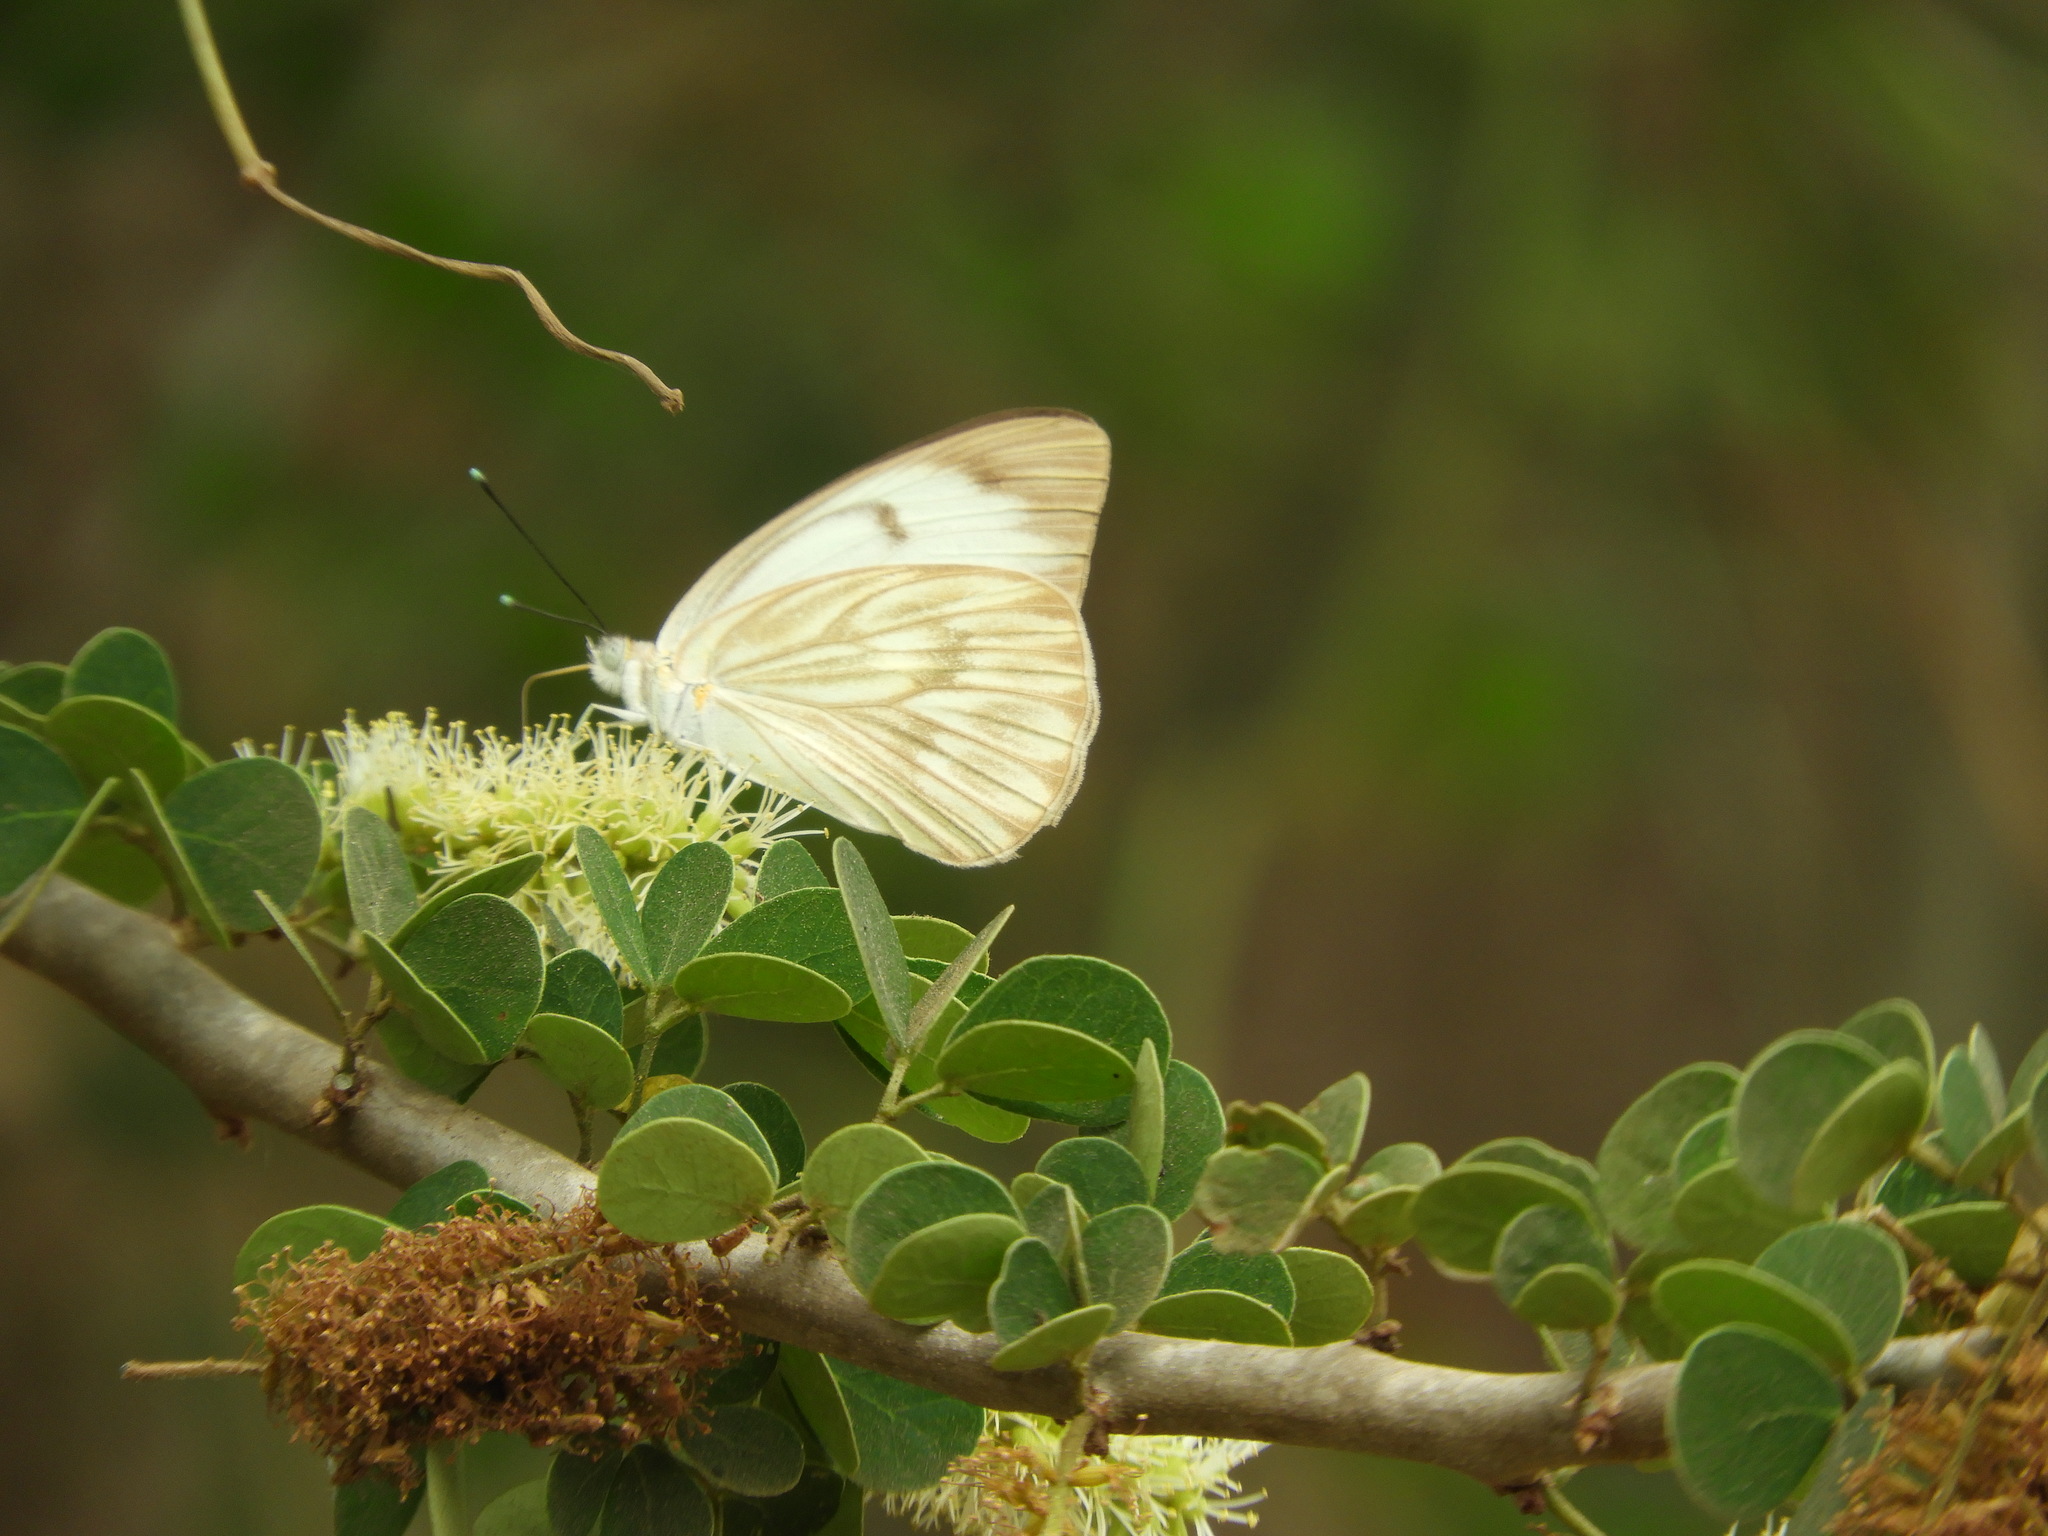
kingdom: Animalia
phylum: Arthropoda
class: Insecta
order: Lepidoptera
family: Pieridae
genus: Ascia
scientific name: Ascia monuste
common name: Great southern white
